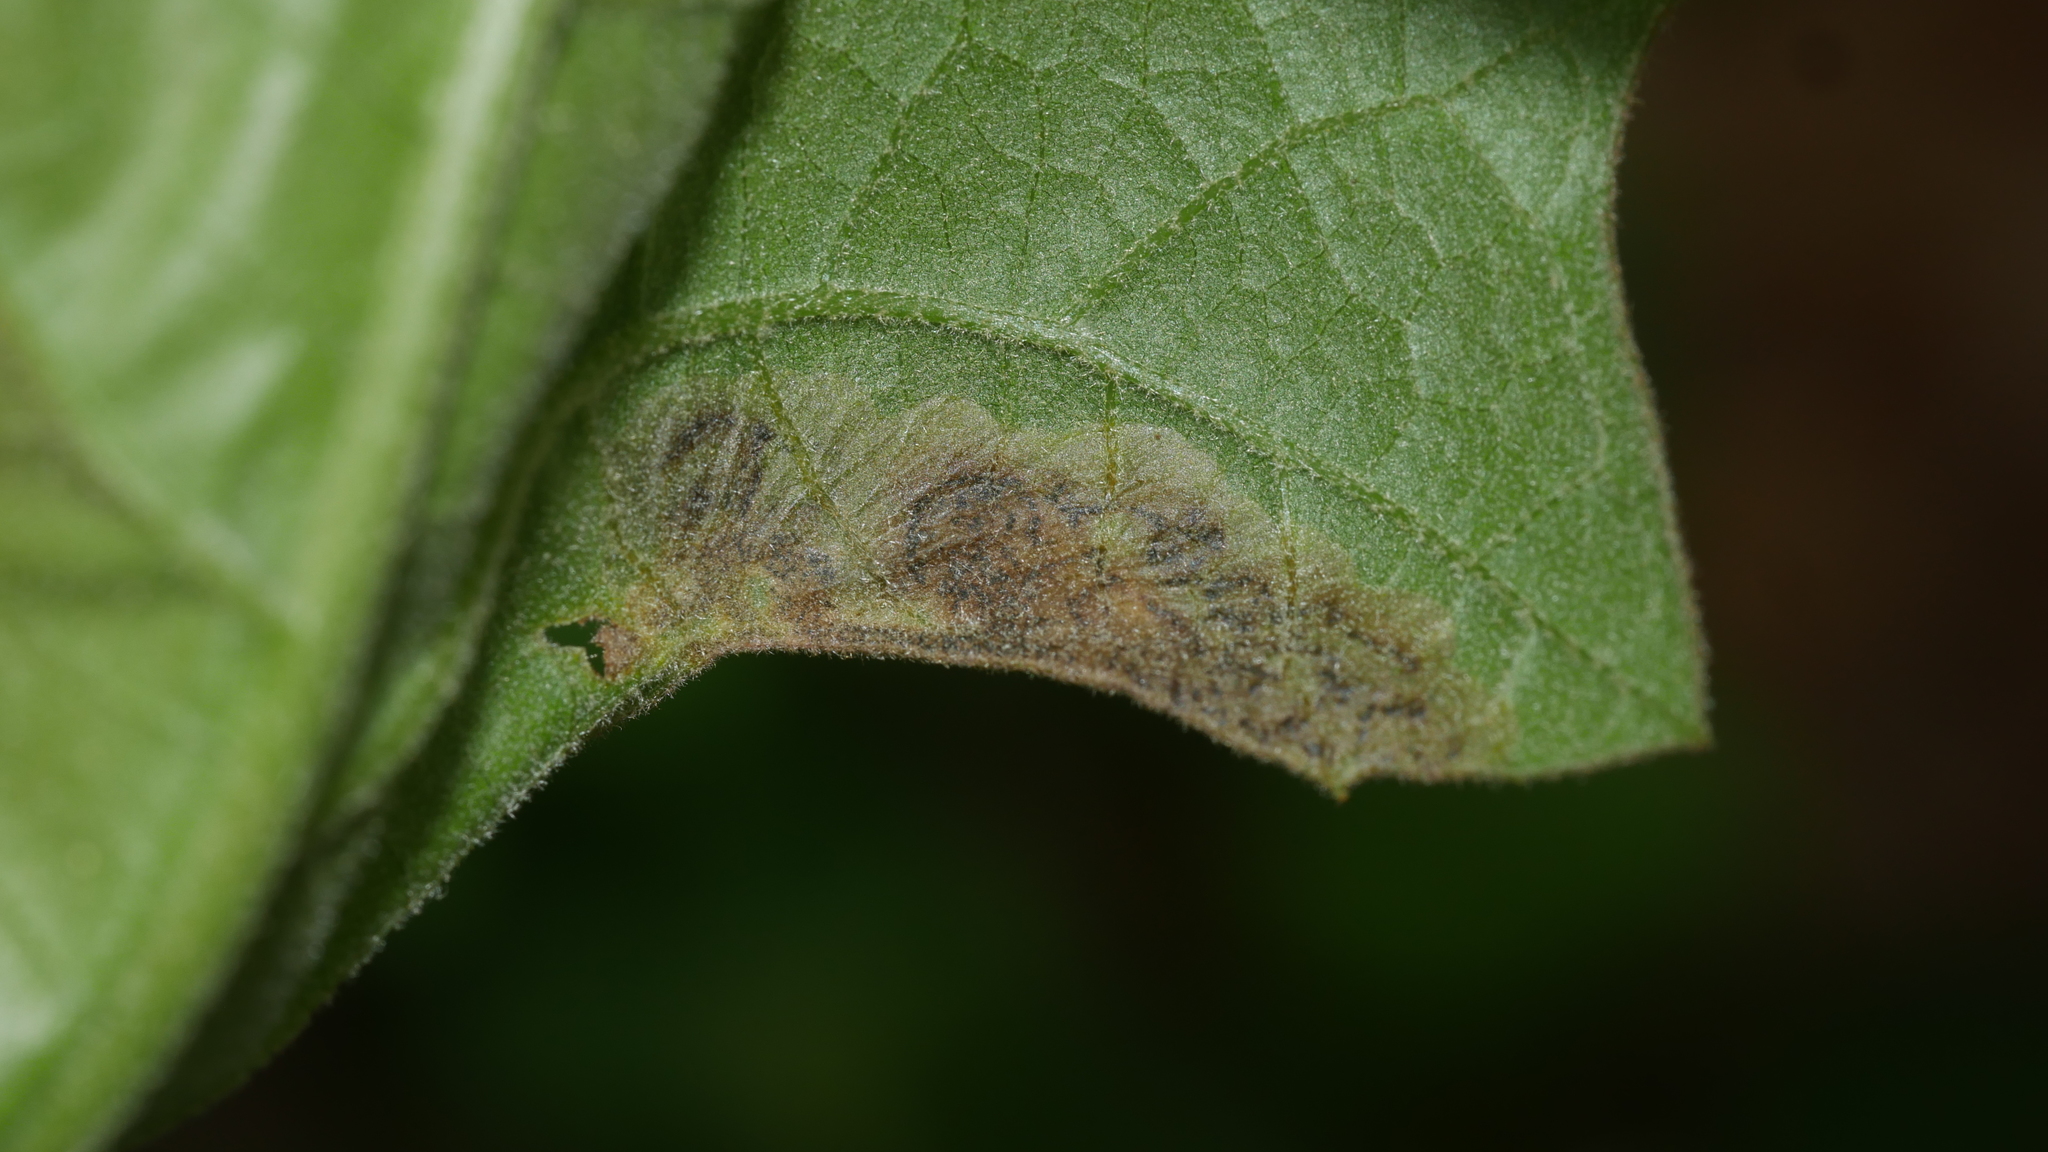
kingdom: Animalia
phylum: Arthropoda
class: Insecta
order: Diptera
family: Agromyzidae
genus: Japanagromyza
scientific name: Japanagromyza viridula
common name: Oak shothole leafminer
